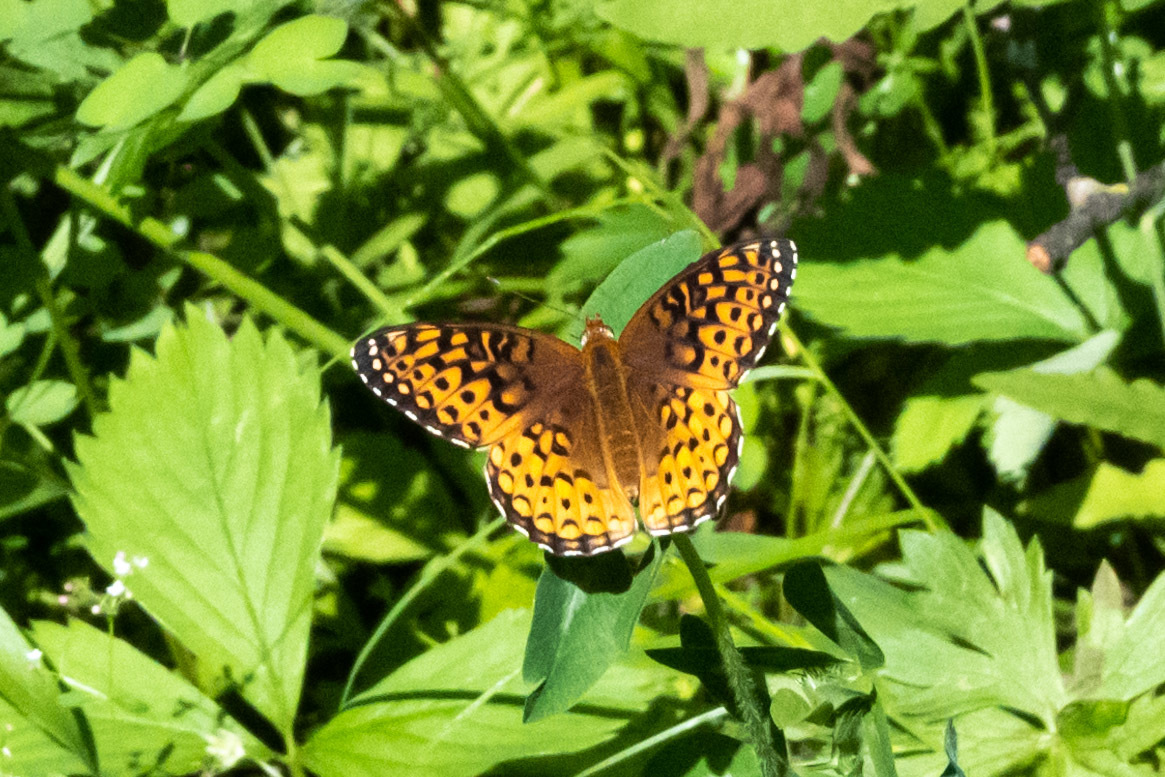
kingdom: Animalia
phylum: Arthropoda
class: Insecta
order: Lepidoptera
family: Nymphalidae
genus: Speyeria
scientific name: Speyeria atlantis
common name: Atlantis fritillary
